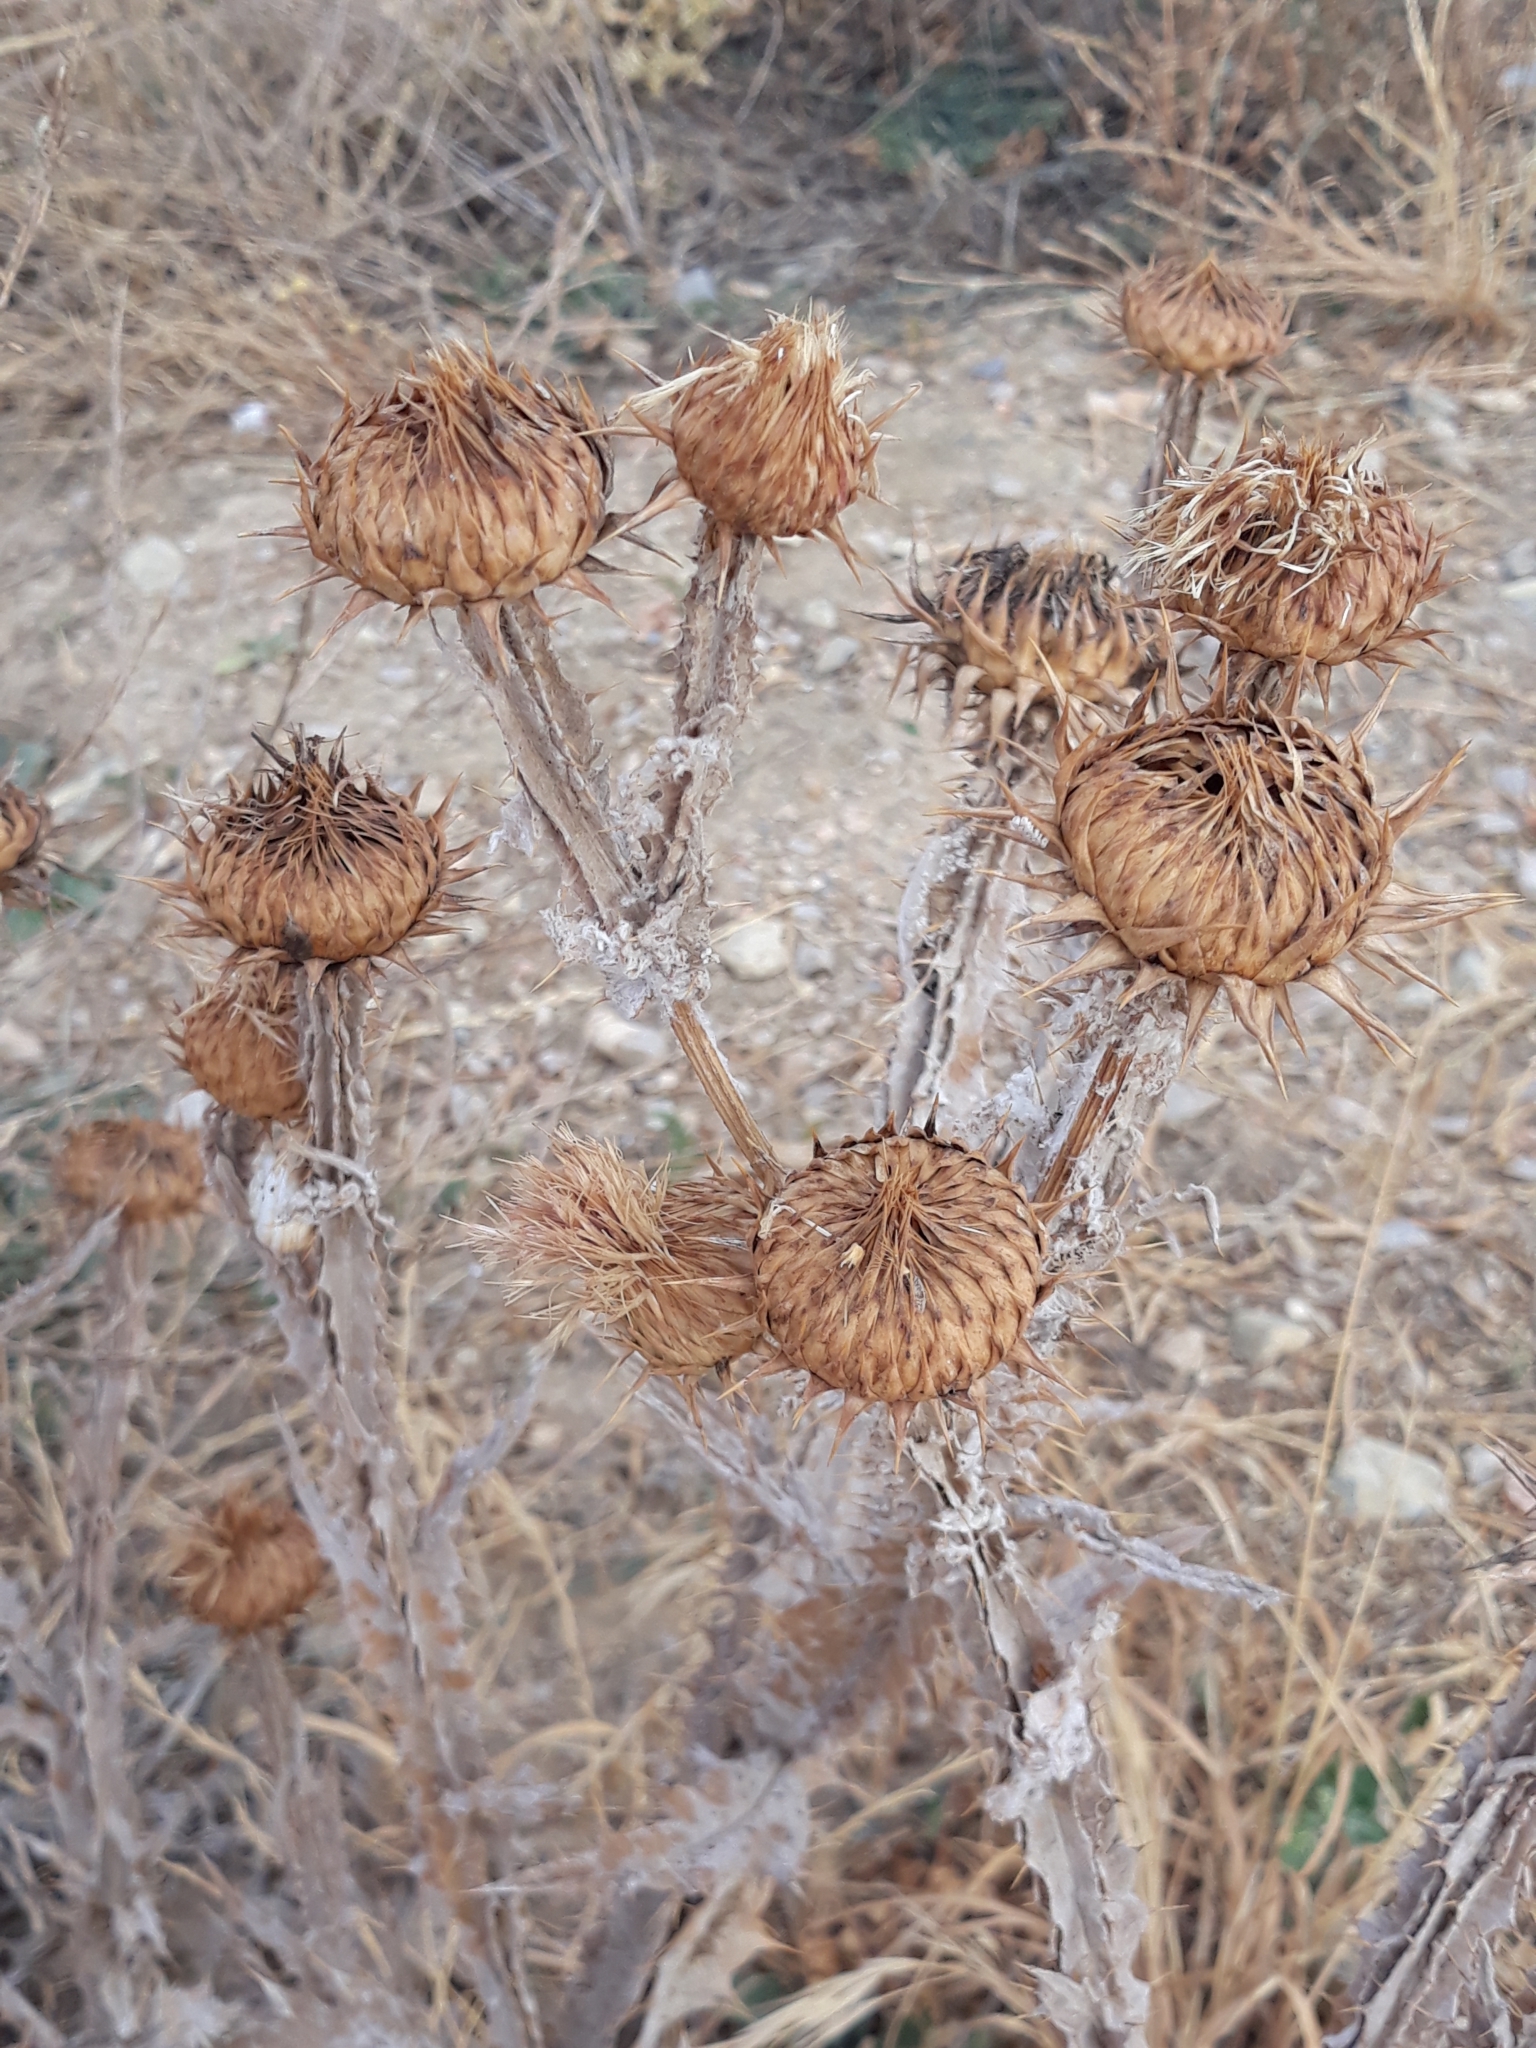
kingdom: Plantae
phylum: Tracheophyta
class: Magnoliopsida
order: Asterales
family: Asteraceae
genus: Onopordum
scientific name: Onopordum macracanthum
